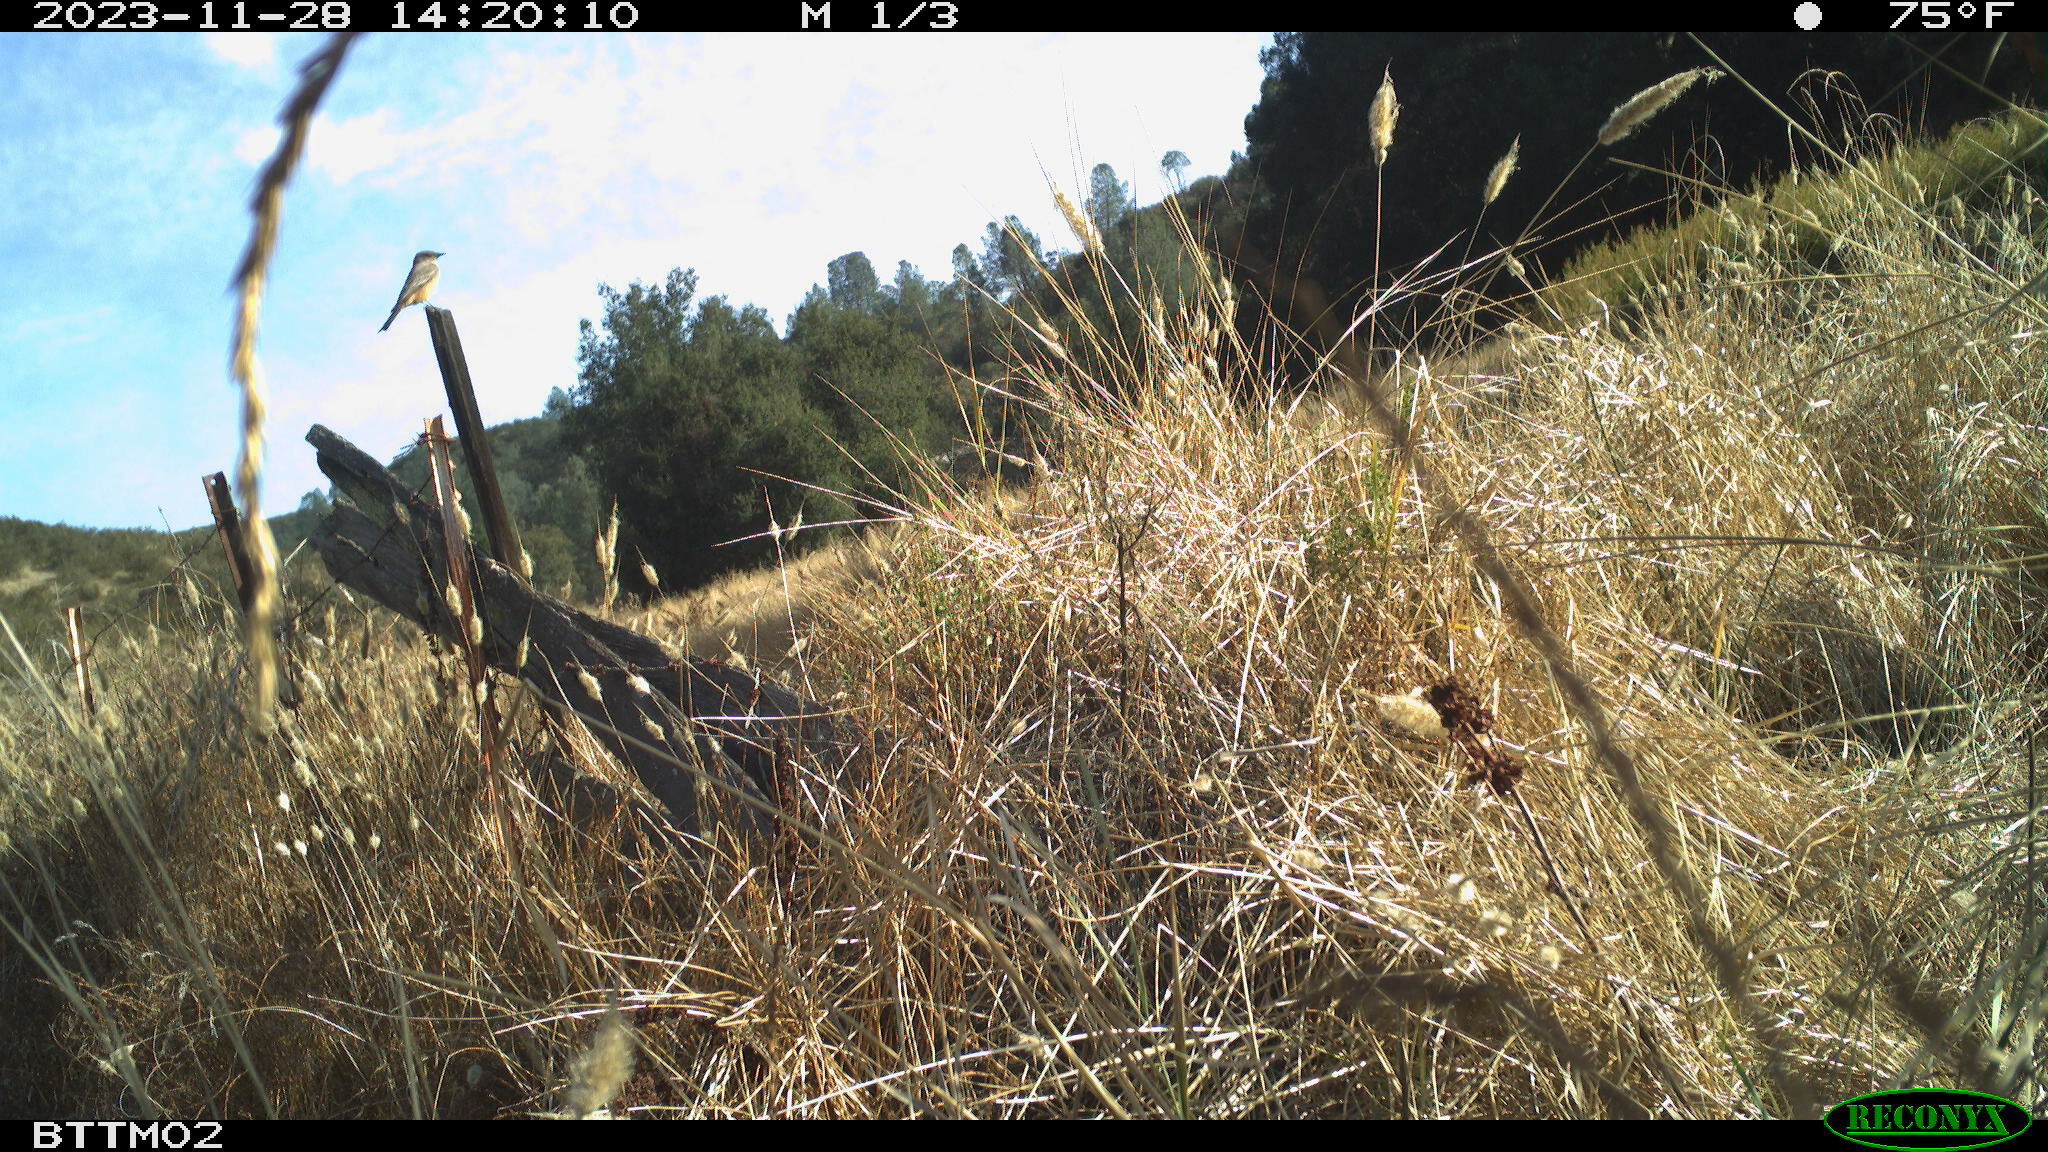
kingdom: Animalia
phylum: Chordata
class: Aves
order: Passeriformes
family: Tyrannidae
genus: Sayornis
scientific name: Sayornis saya
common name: Say's phoebe
